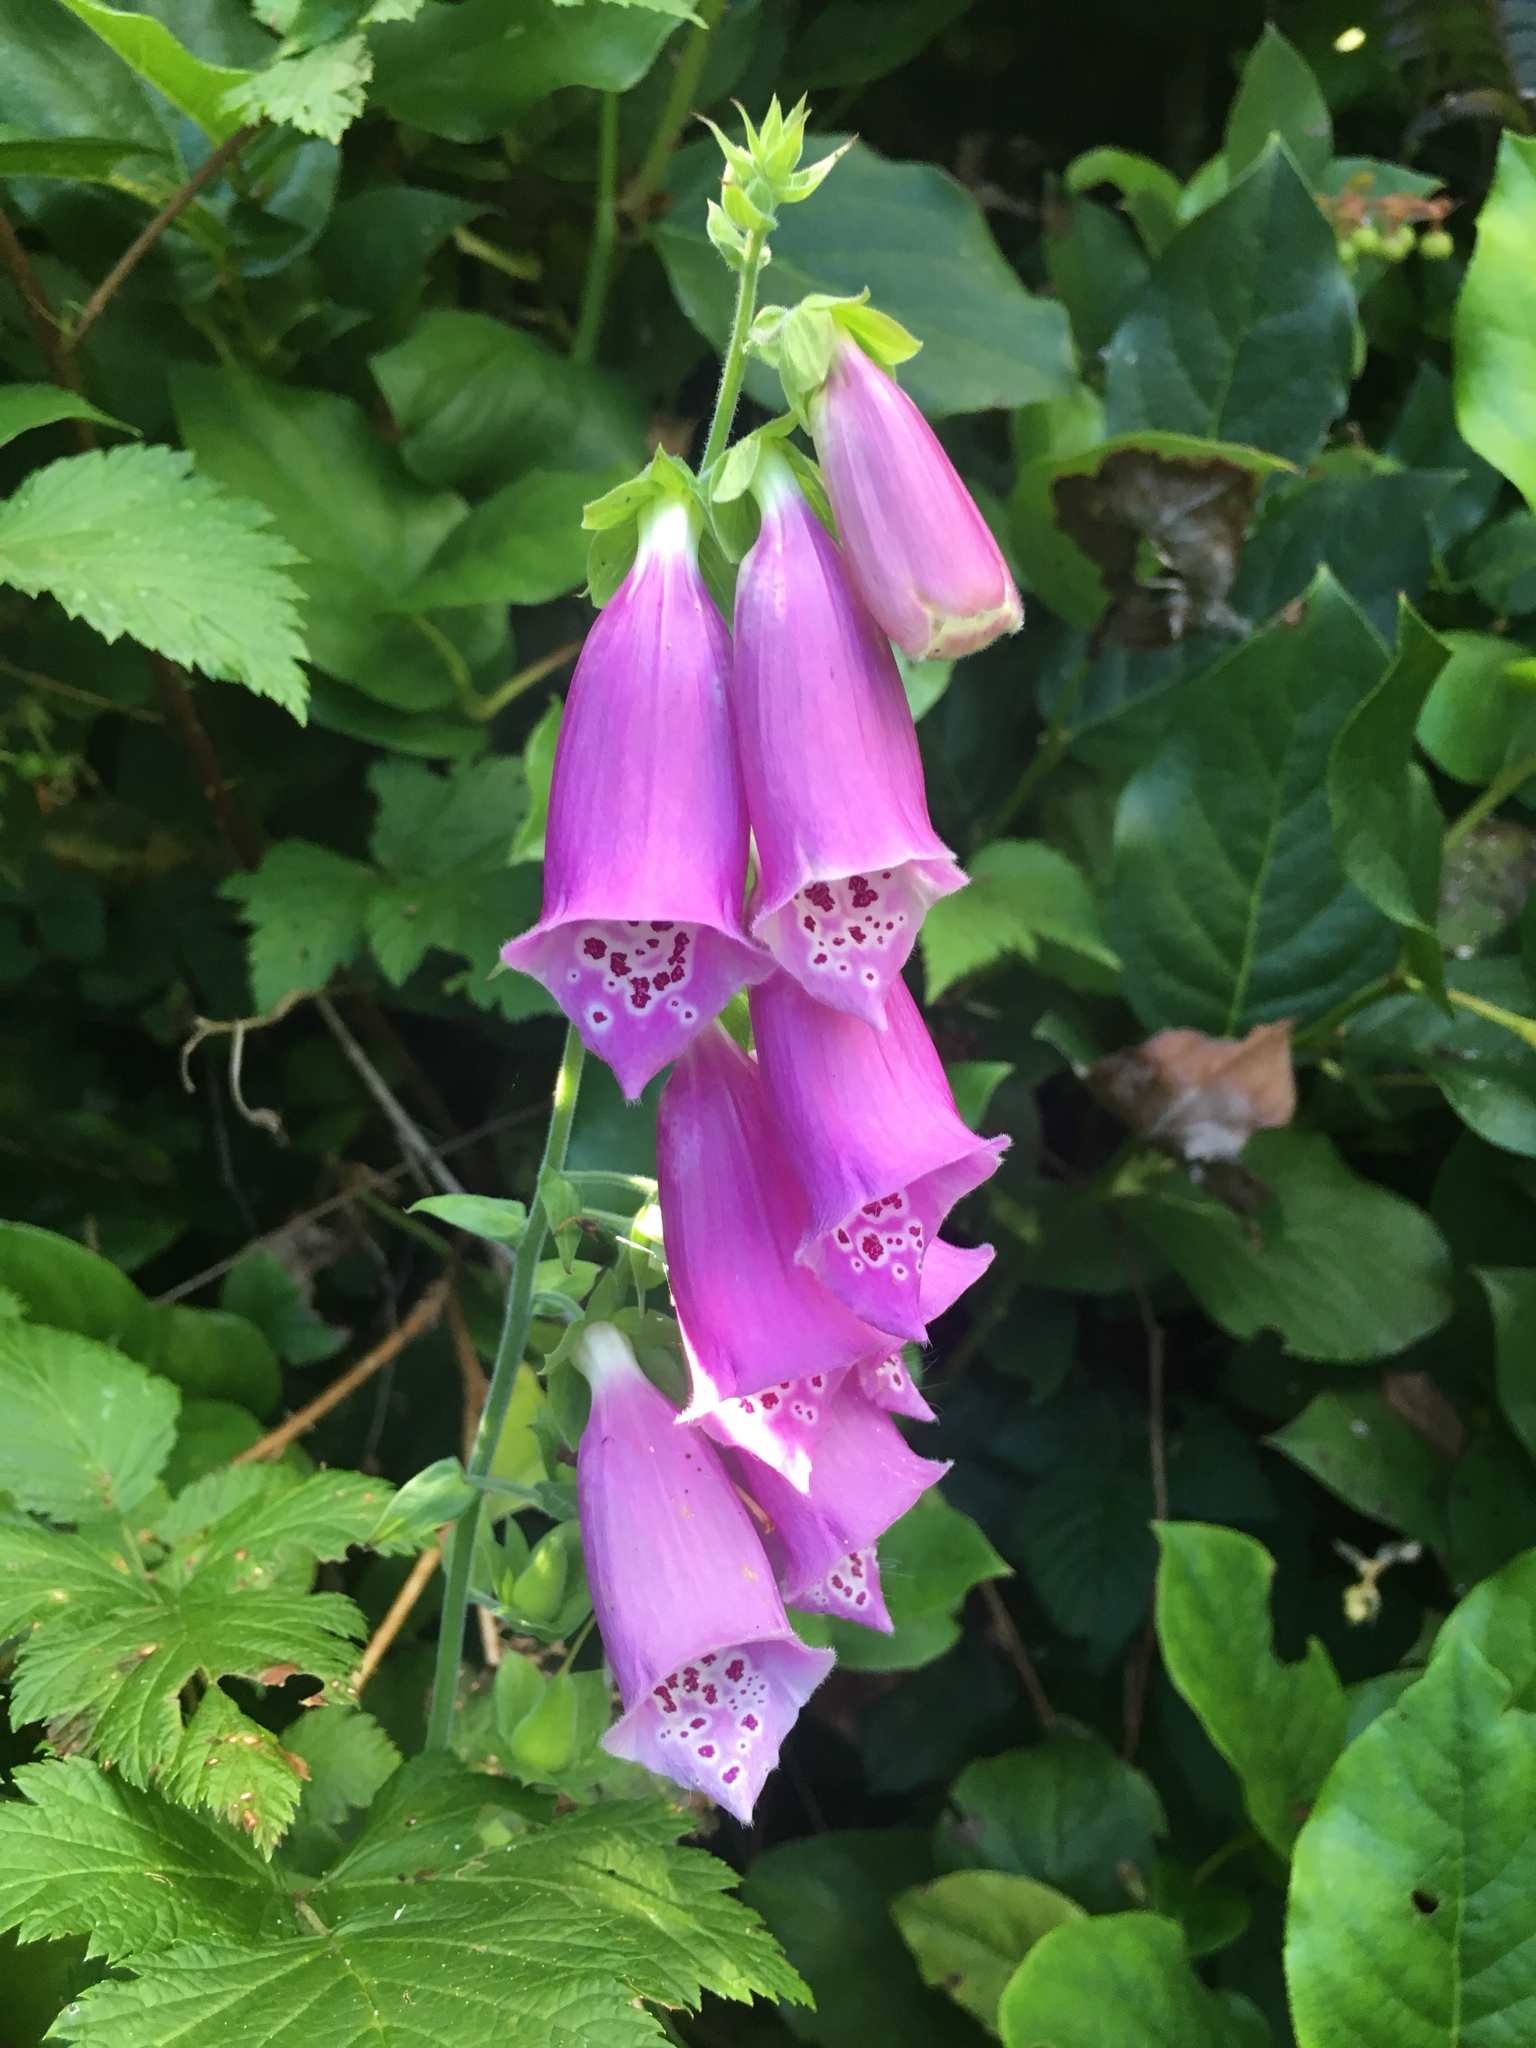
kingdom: Plantae
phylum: Tracheophyta
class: Magnoliopsida
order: Lamiales
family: Plantaginaceae
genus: Digitalis
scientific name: Digitalis purpurea
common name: Foxglove
